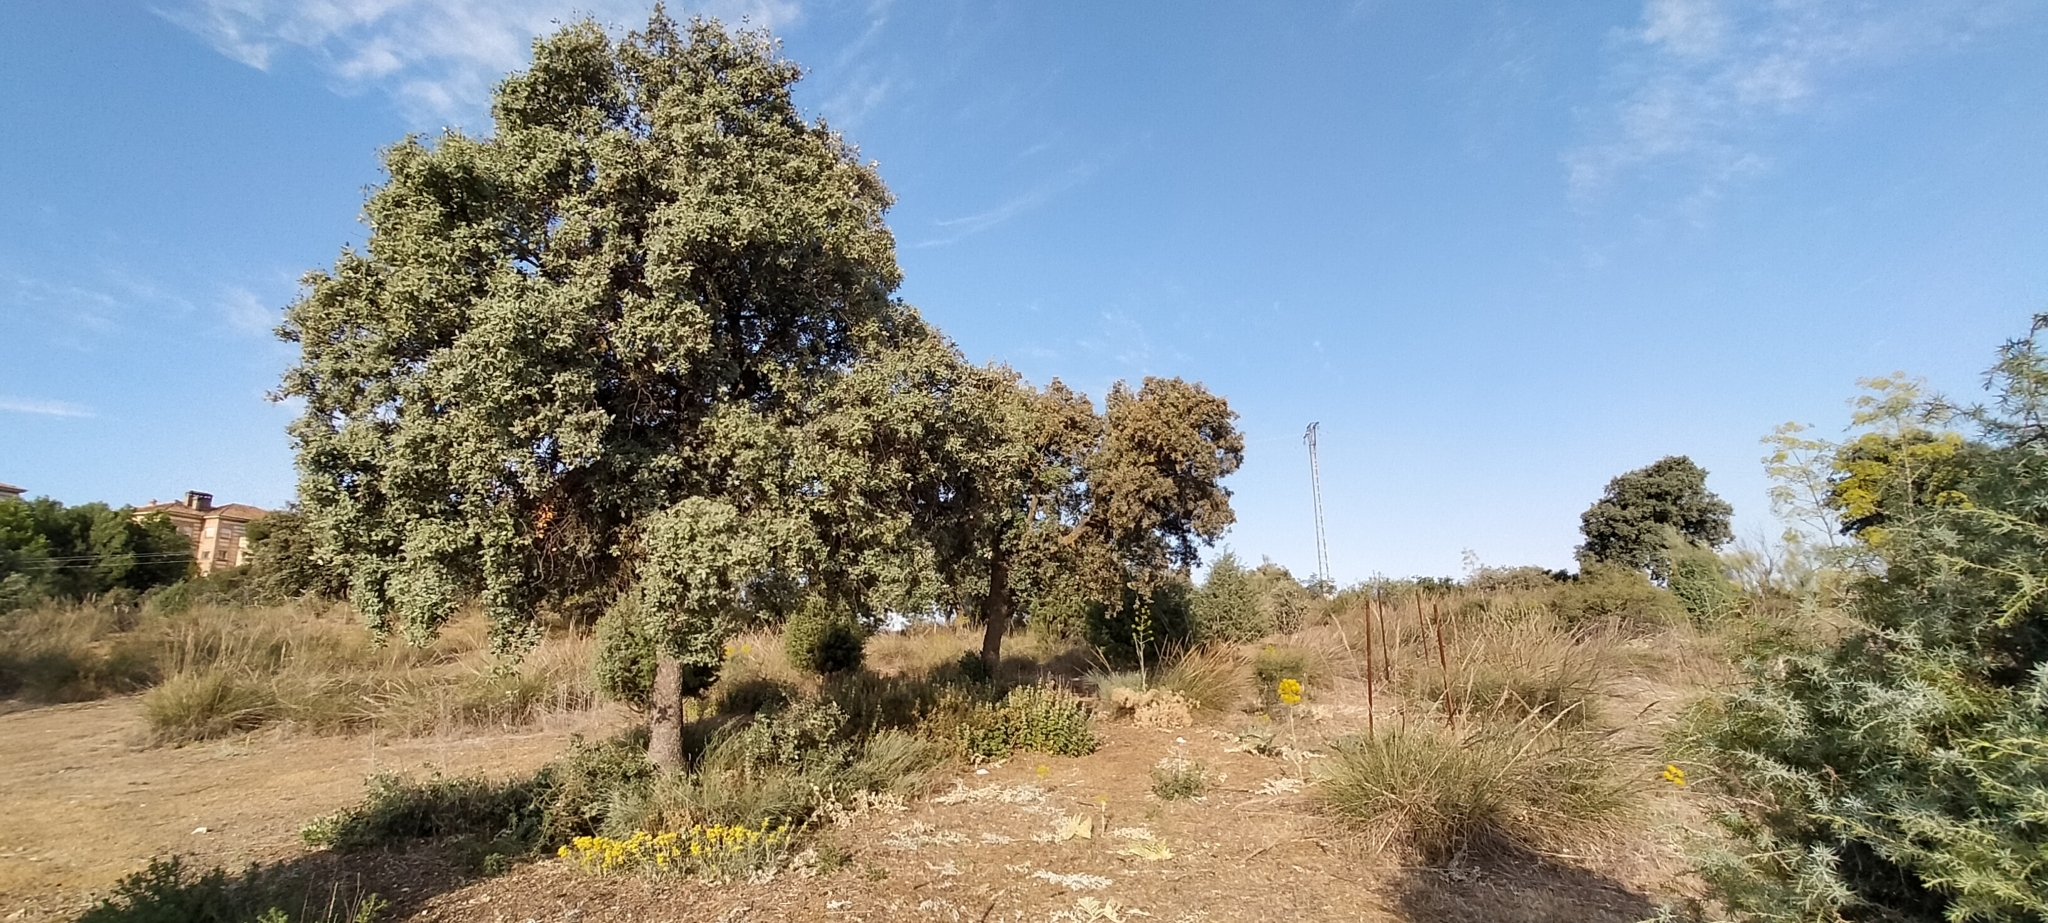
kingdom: Plantae
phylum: Tracheophyta
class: Magnoliopsida
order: Fagales
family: Fagaceae
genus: Quercus
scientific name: Quercus rotundifolia
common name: Holm oak
